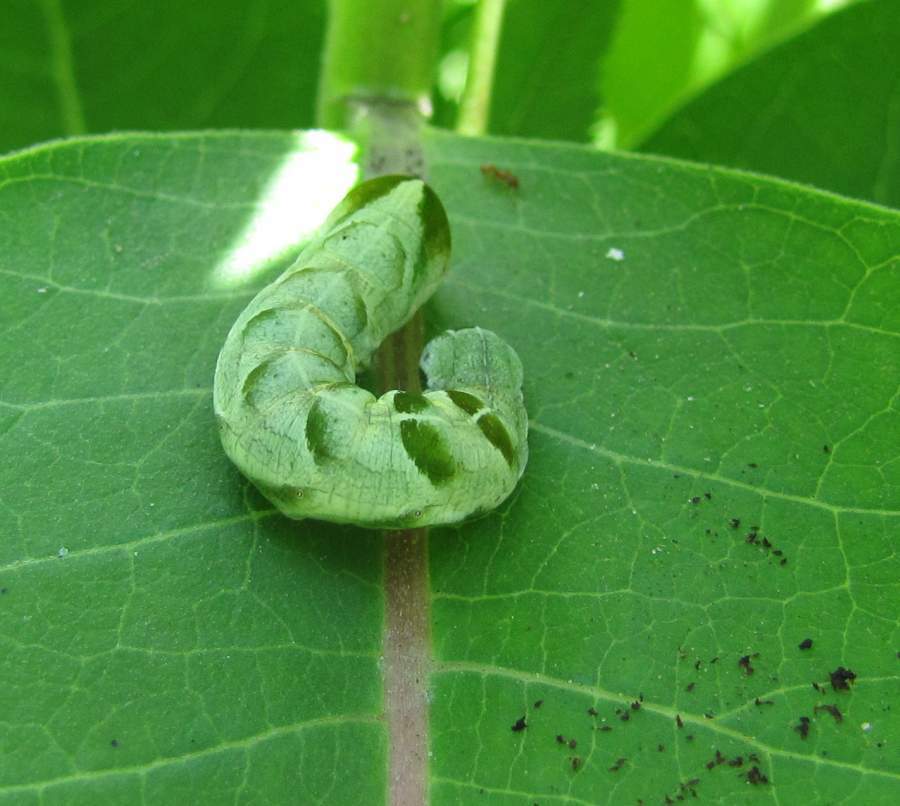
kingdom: Animalia
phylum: Arthropoda
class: Insecta
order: Lepidoptera
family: Noctuidae
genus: Melanchra
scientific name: Melanchra adjuncta
